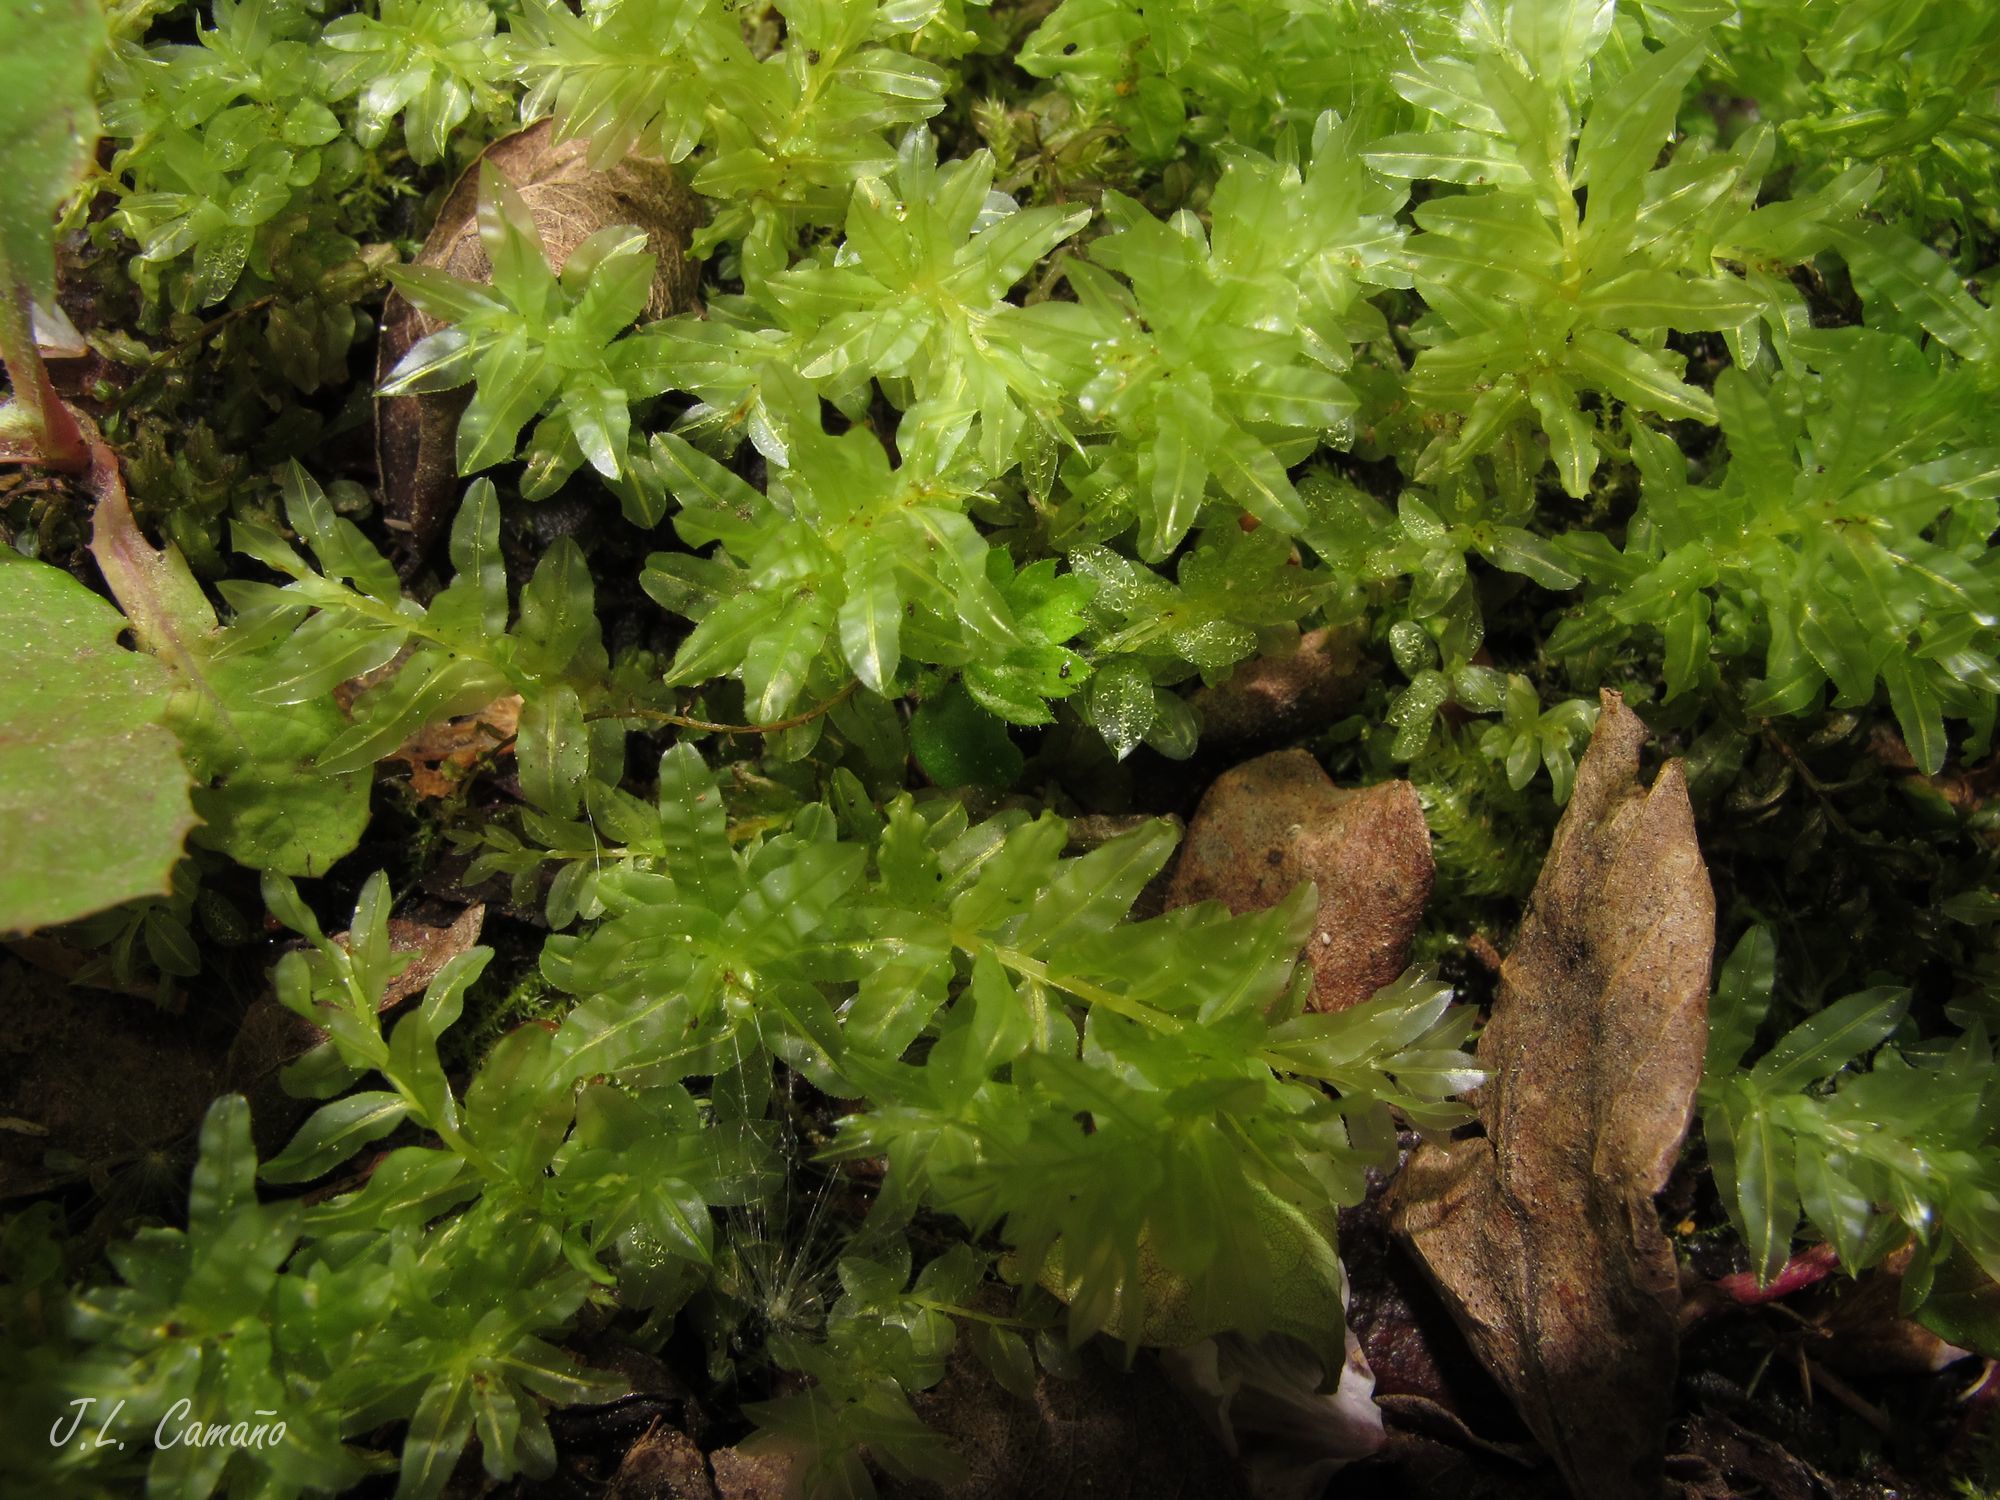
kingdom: Plantae
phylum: Bryophyta
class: Bryopsida
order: Bryales
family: Mniaceae
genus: Plagiomnium
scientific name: Plagiomnium undulatum
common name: Hart's-tongue thyme-moss
